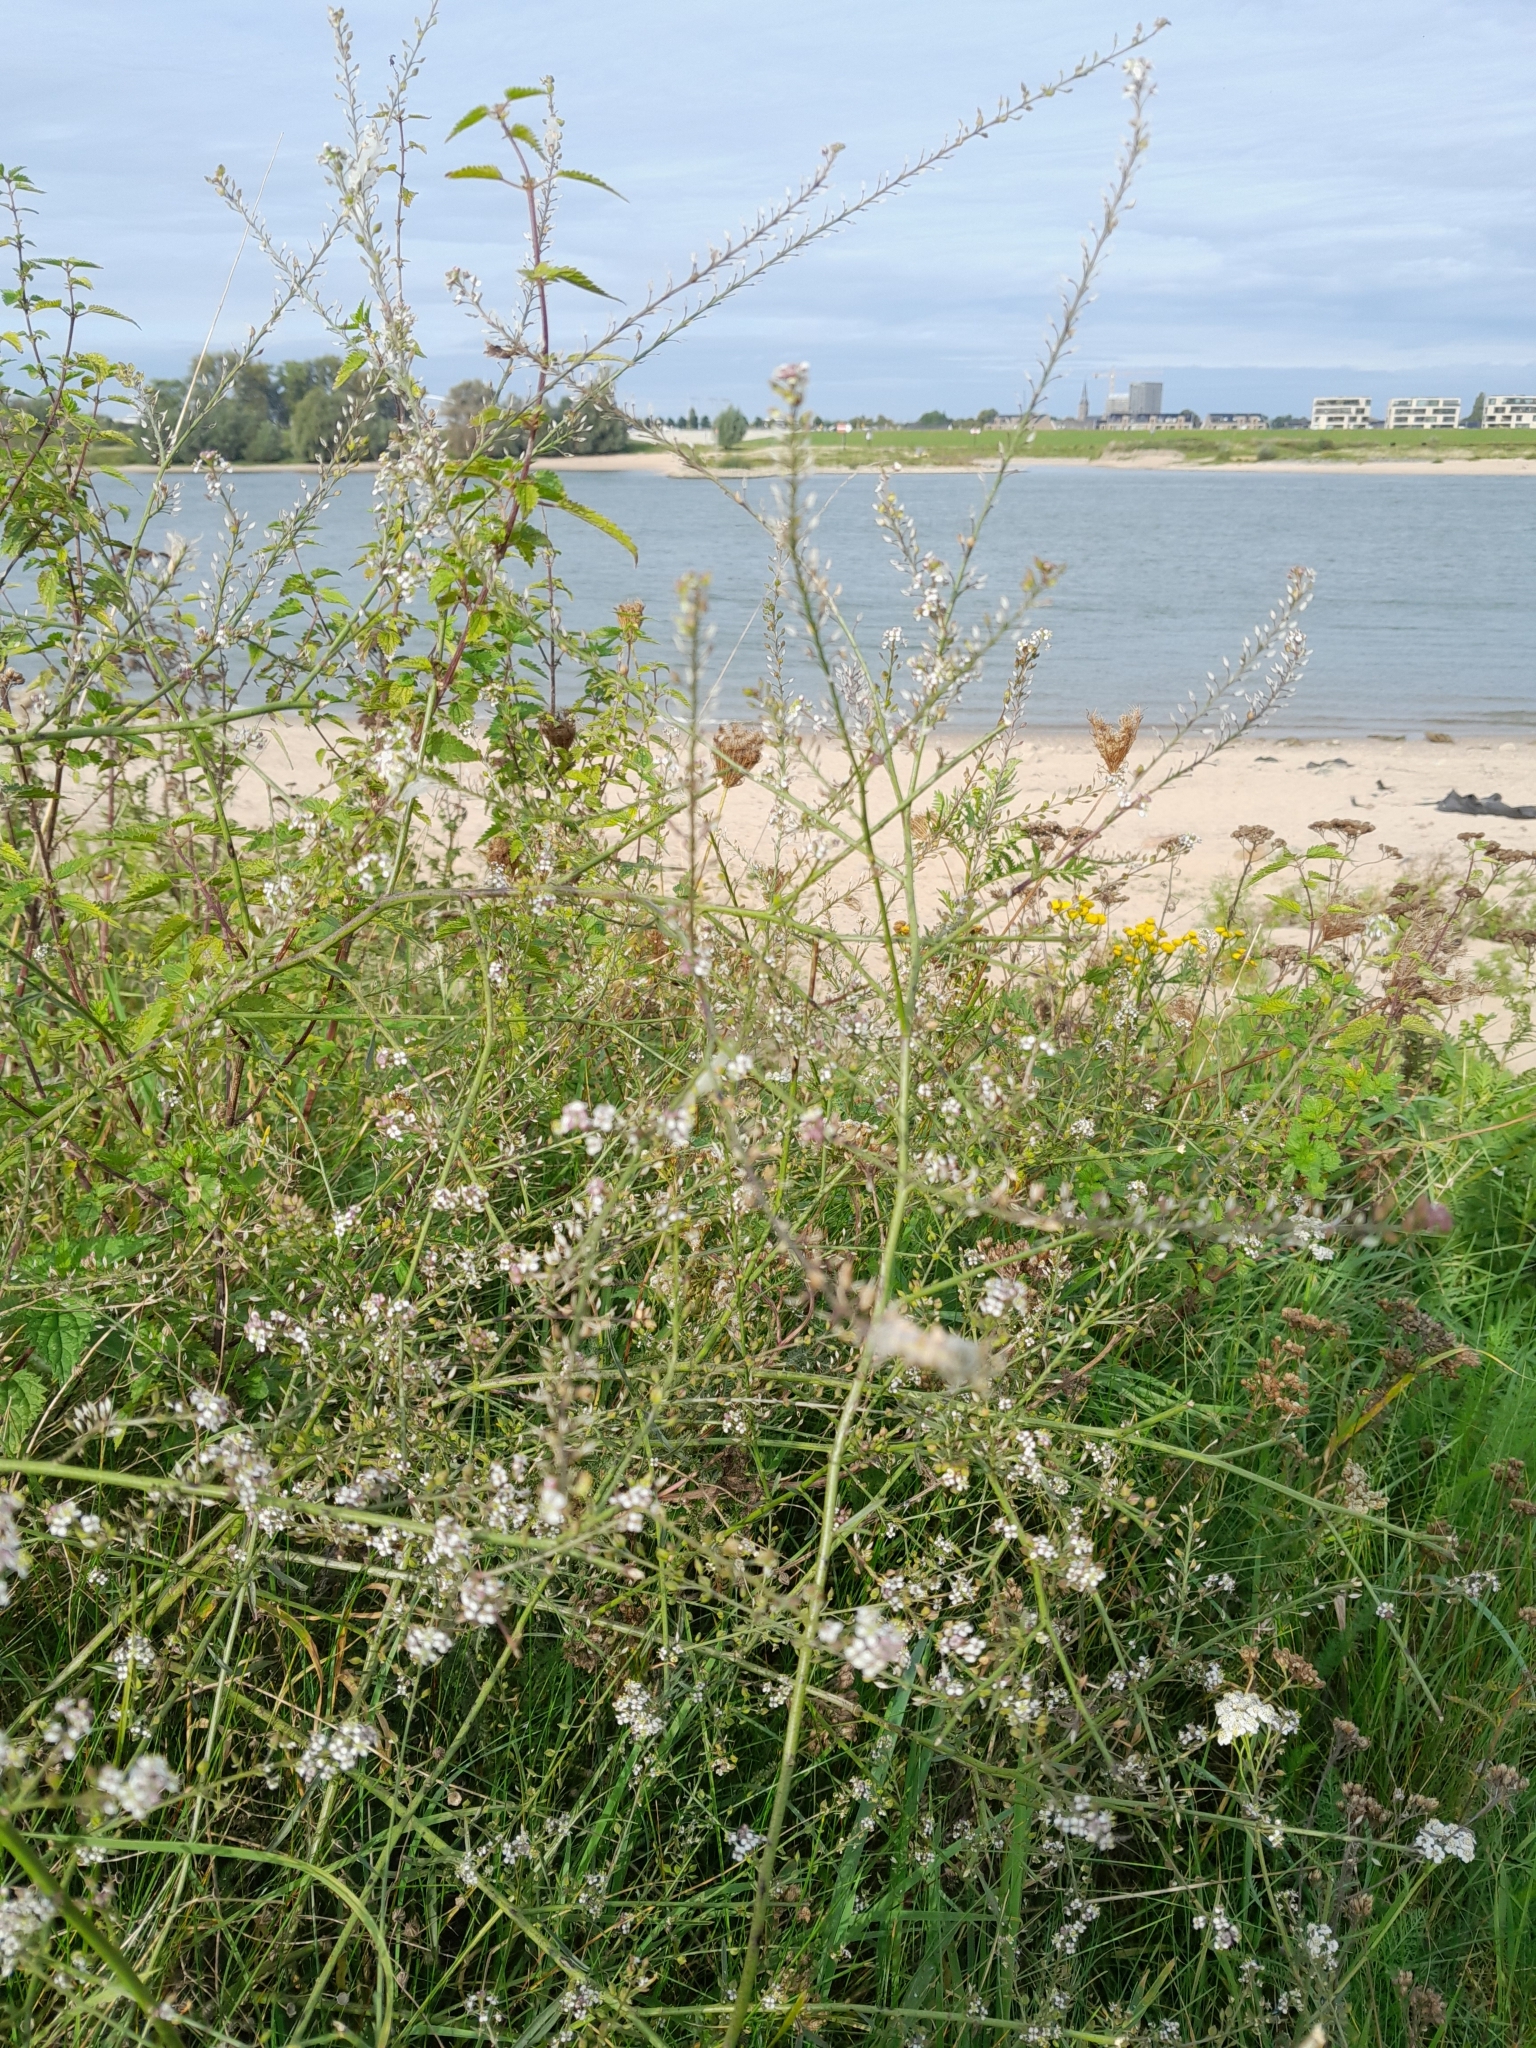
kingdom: Plantae
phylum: Tracheophyta
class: Magnoliopsida
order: Brassicales
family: Brassicaceae
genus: Lepidium
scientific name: Lepidium graminifolium
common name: Tall pepperwort
